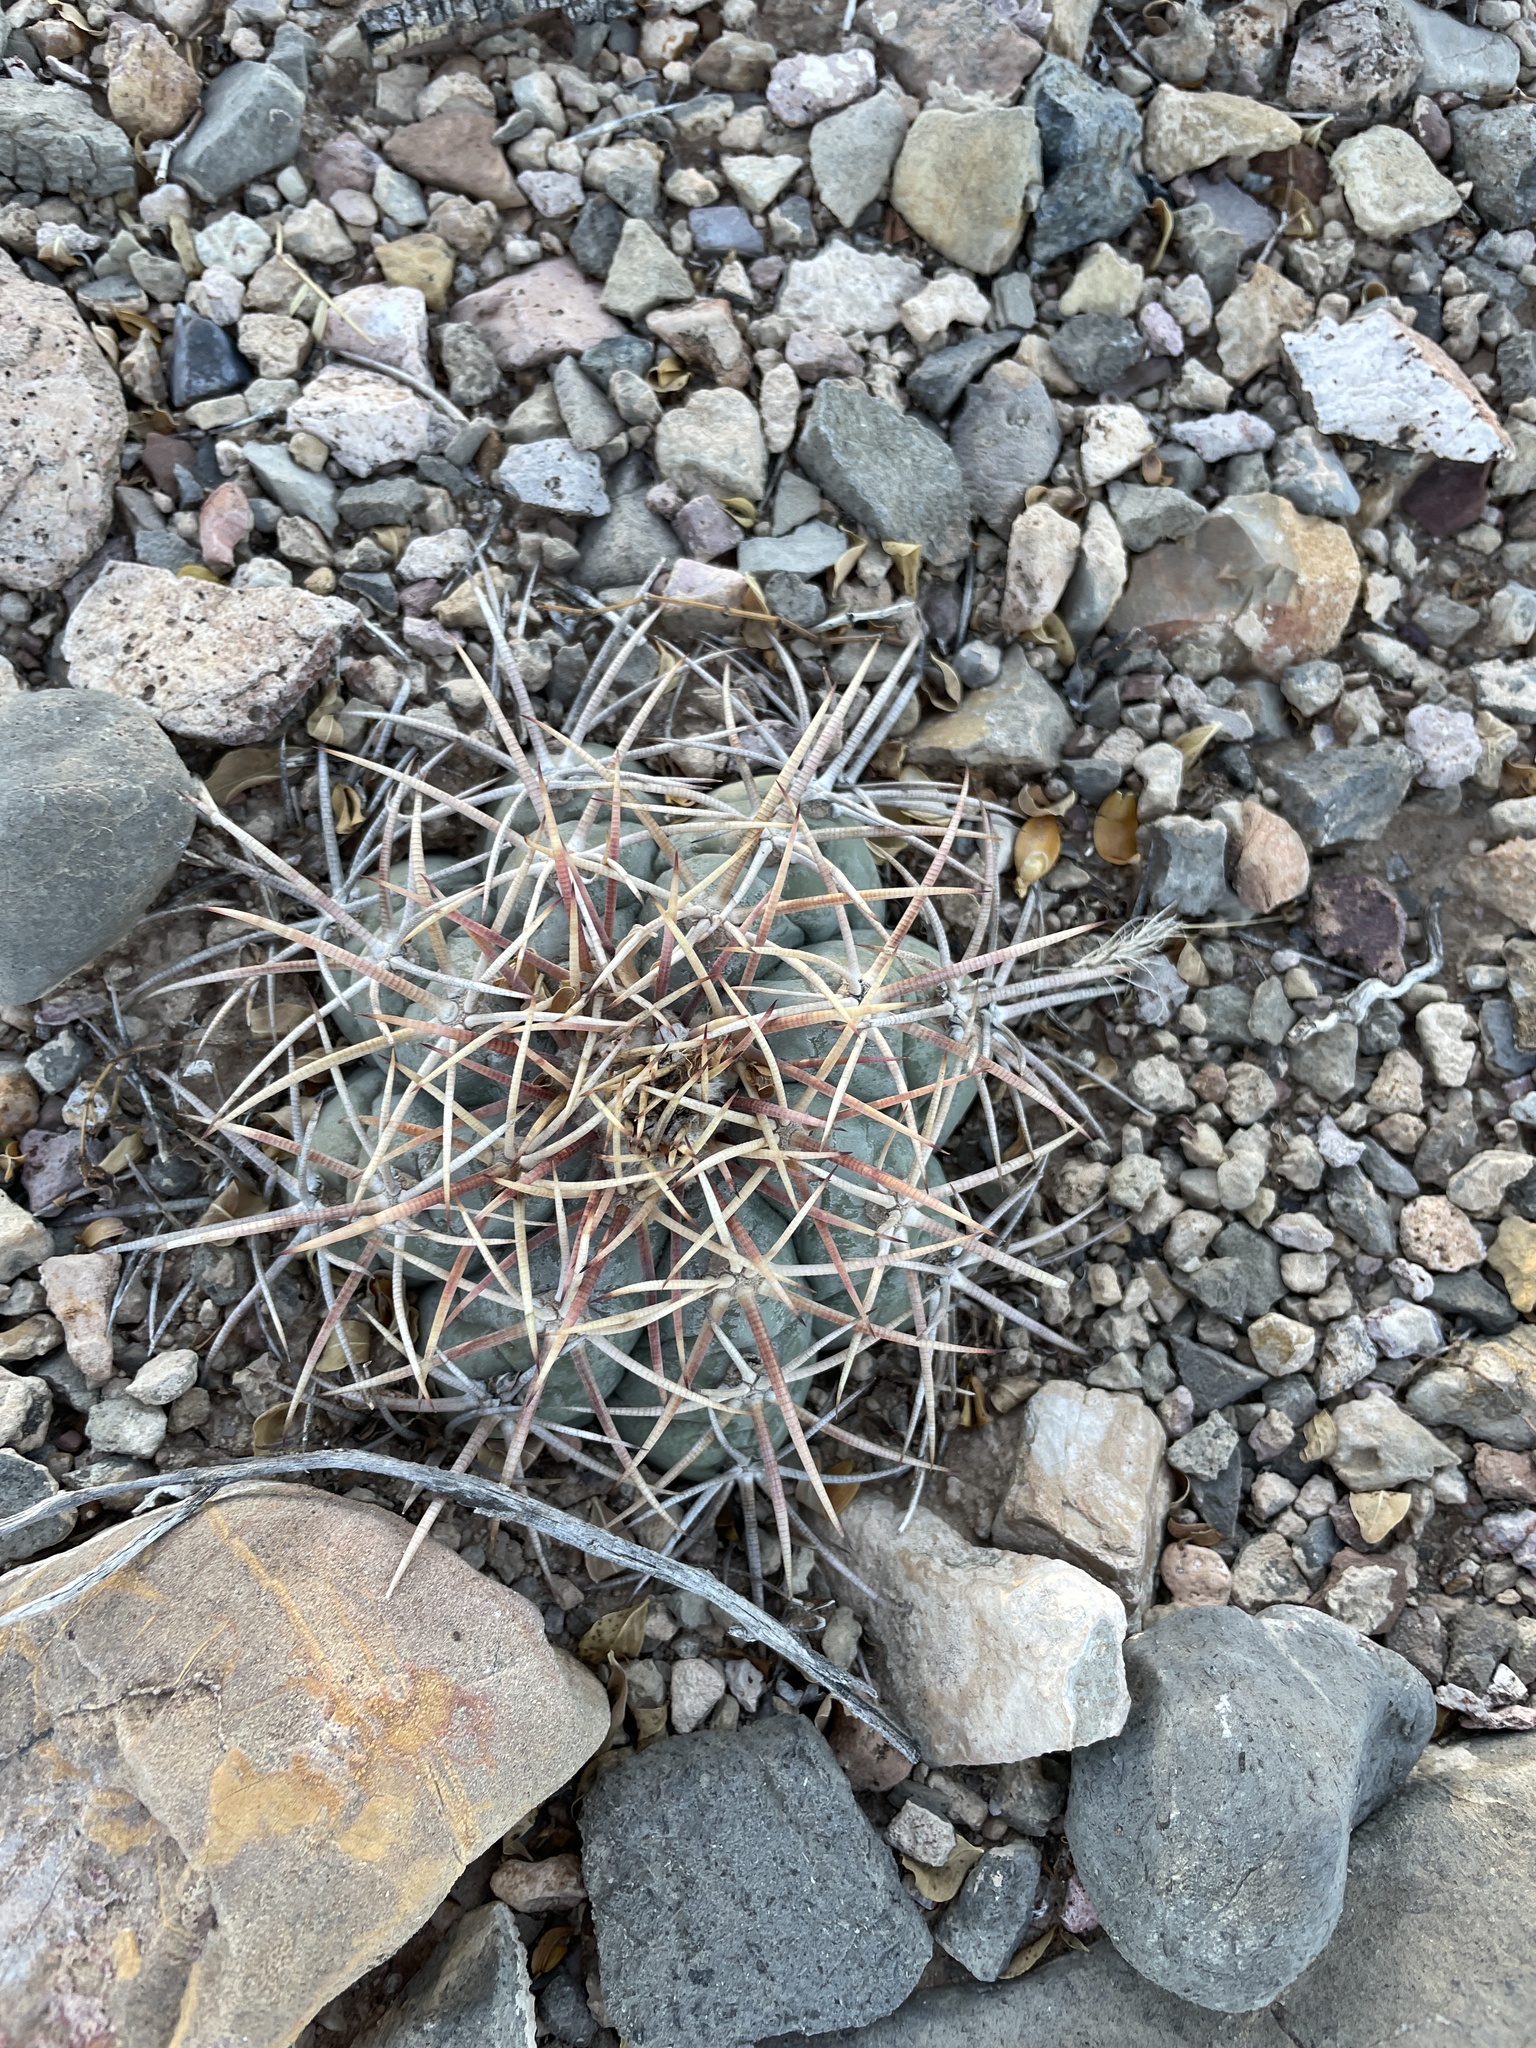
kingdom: Plantae
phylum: Tracheophyta
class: Magnoliopsida
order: Caryophyllales
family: Cactaceae
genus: Echinocactus
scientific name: Echinocactus horizonthalonius
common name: Devilshead
